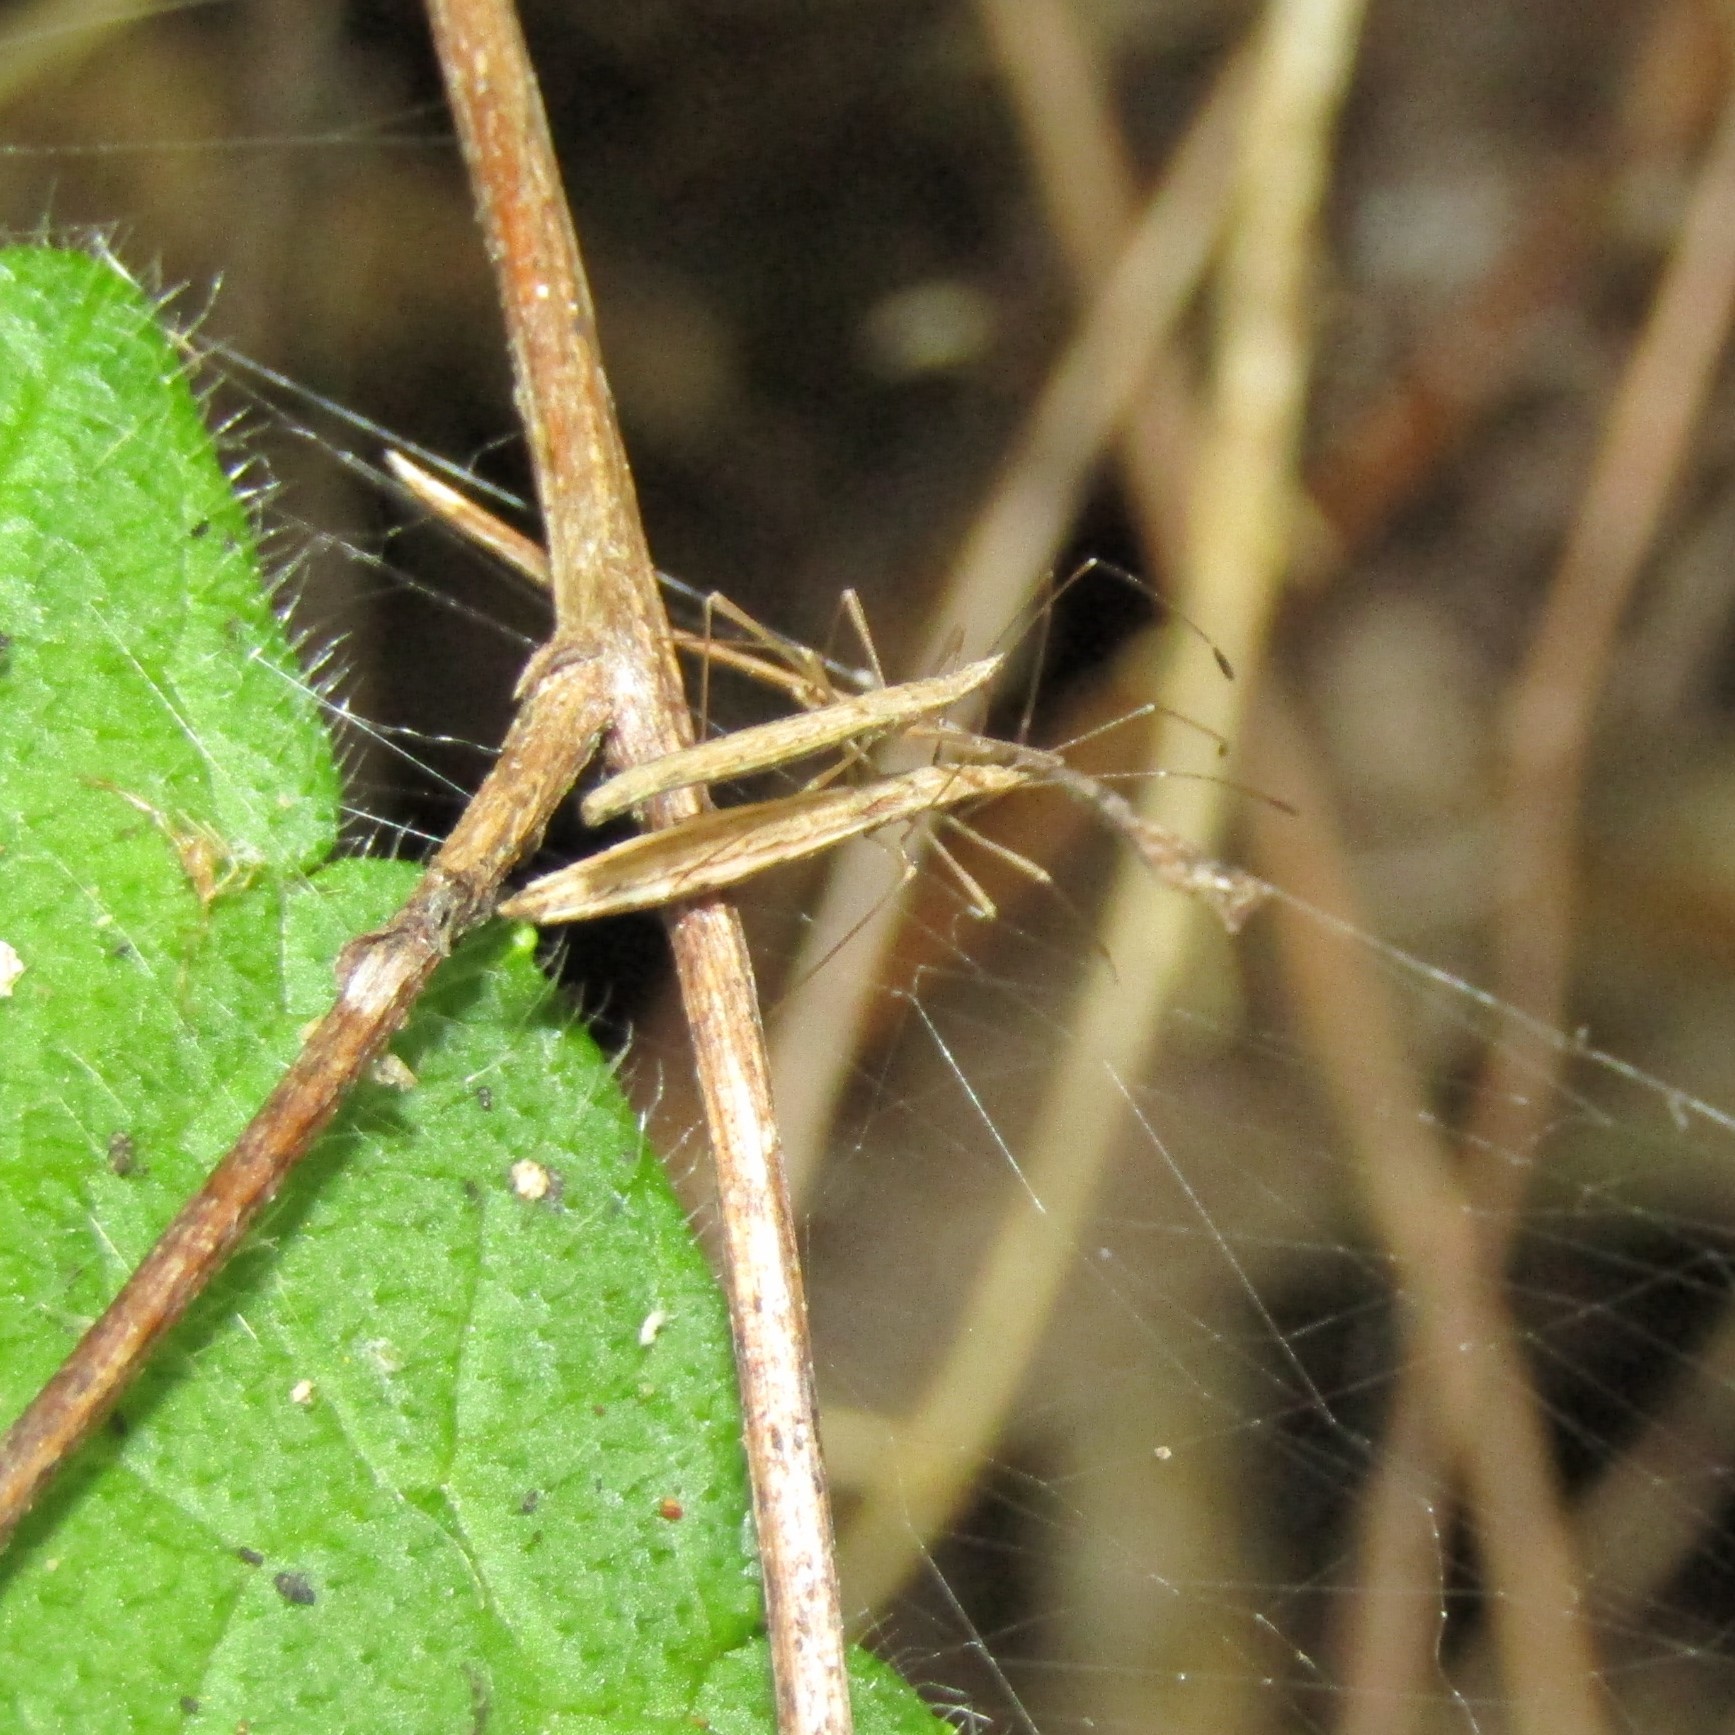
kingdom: Animalia
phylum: Arthropoda
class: Insecta
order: Hemiptera
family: Berytidae
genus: Bezu
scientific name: Bezu wakefieldi
